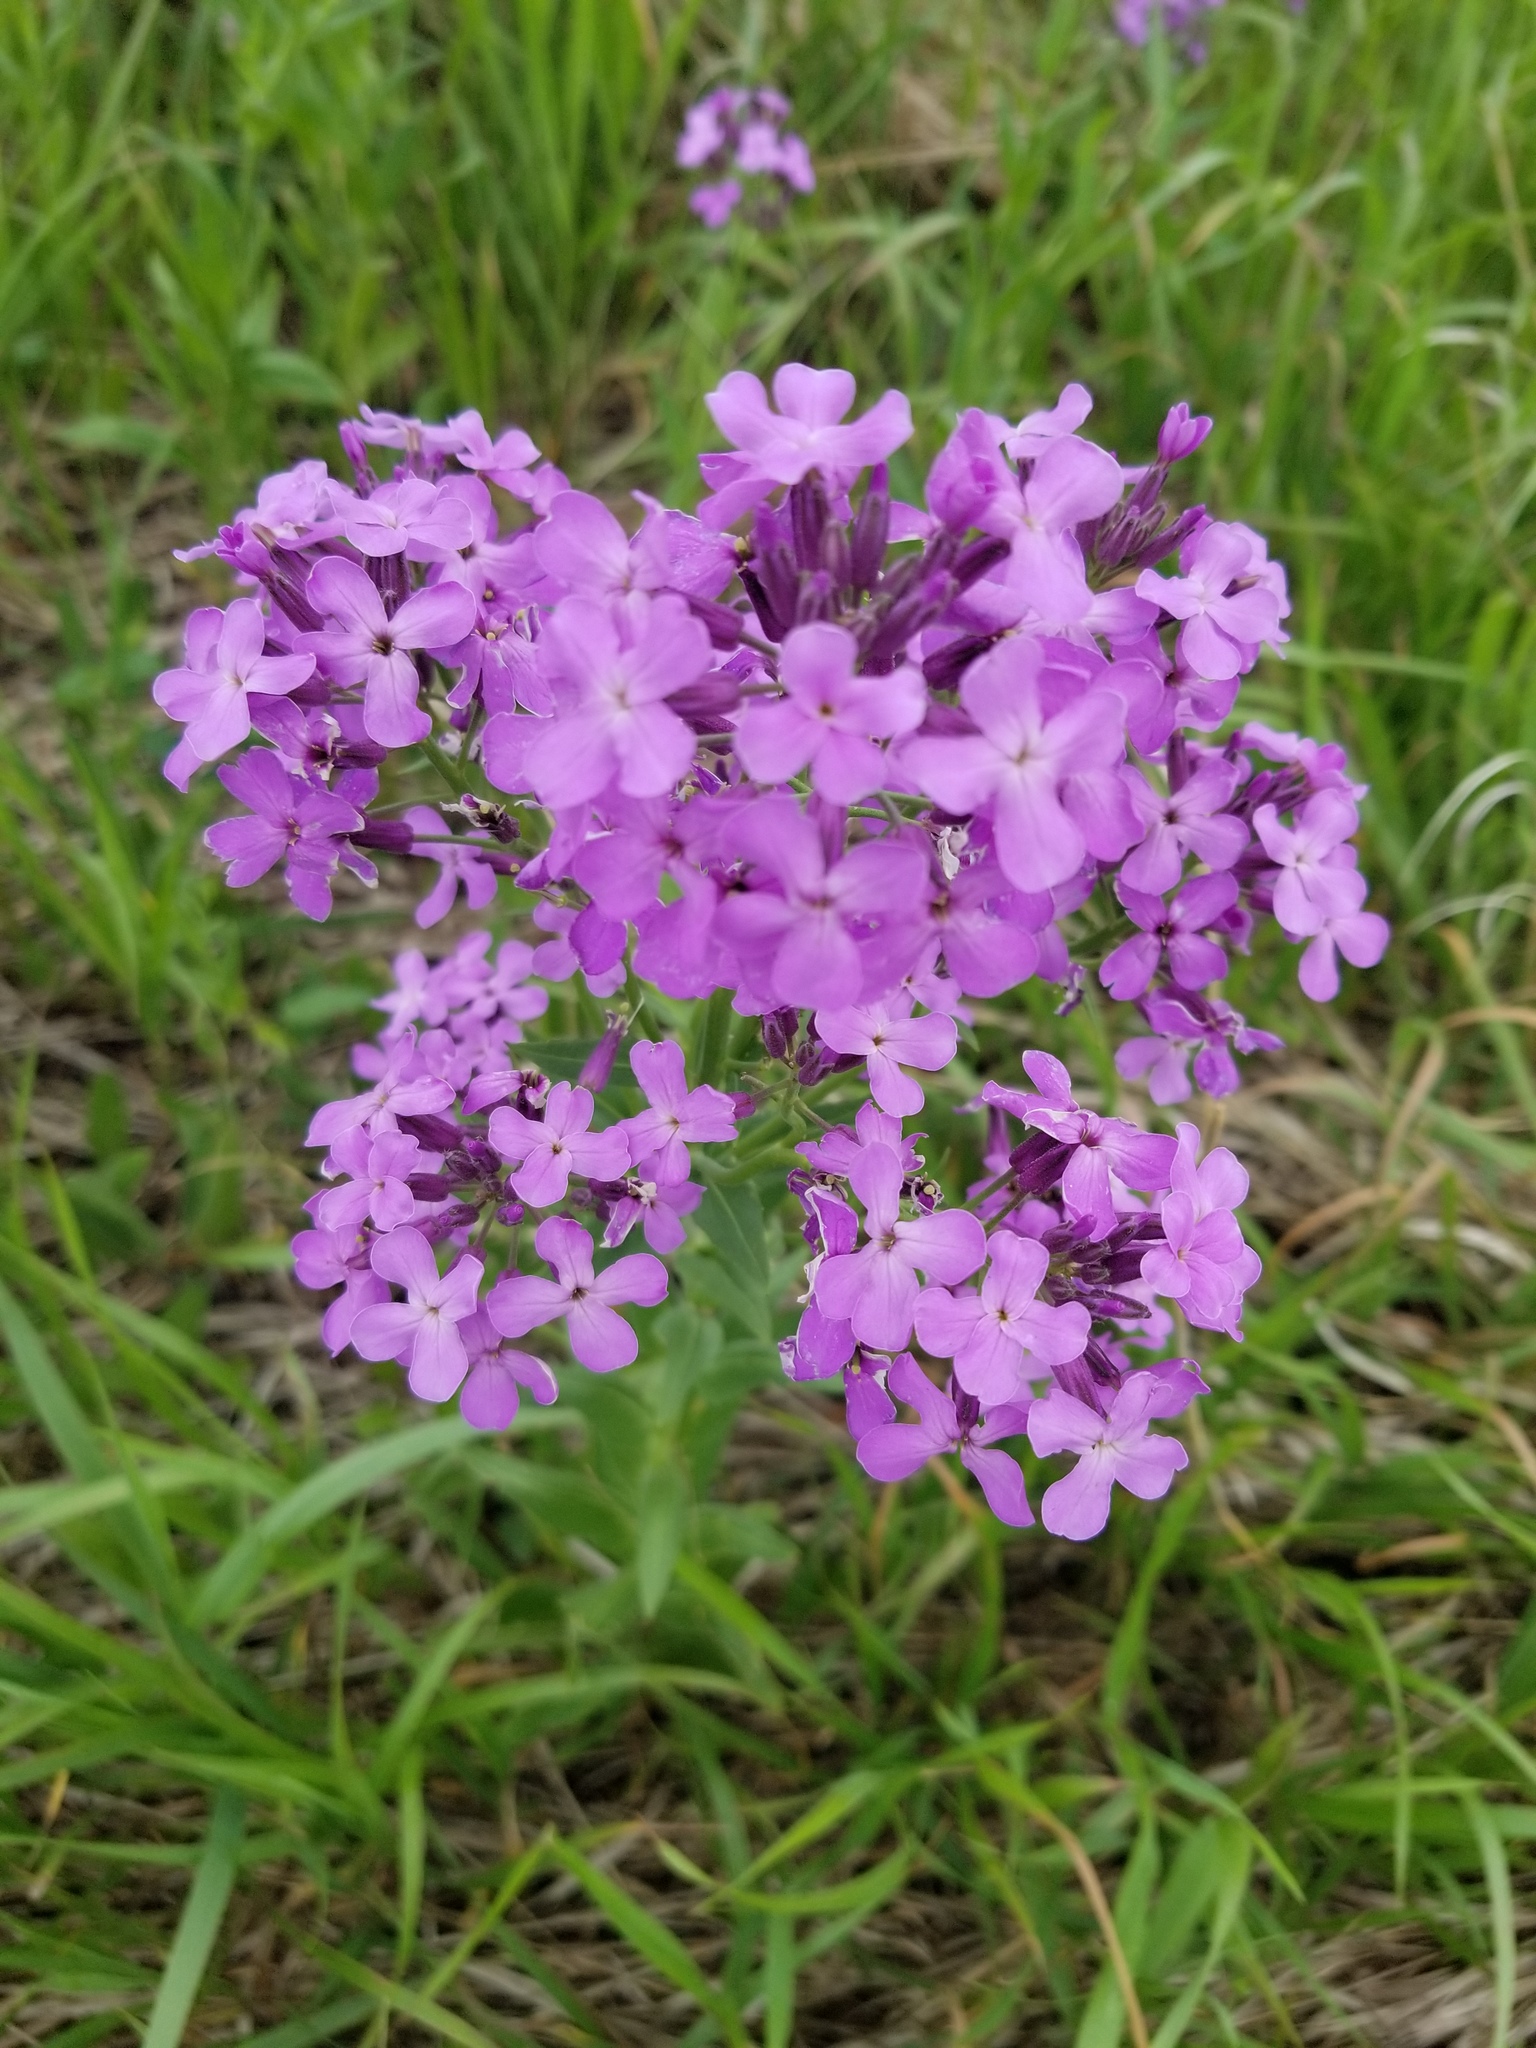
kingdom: Plantae
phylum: Tracheophyta
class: Magnoliopsida
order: Brassicales
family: Brassicaceae
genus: Hesperis
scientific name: Hesperis matronalis
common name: Dame's-violet
